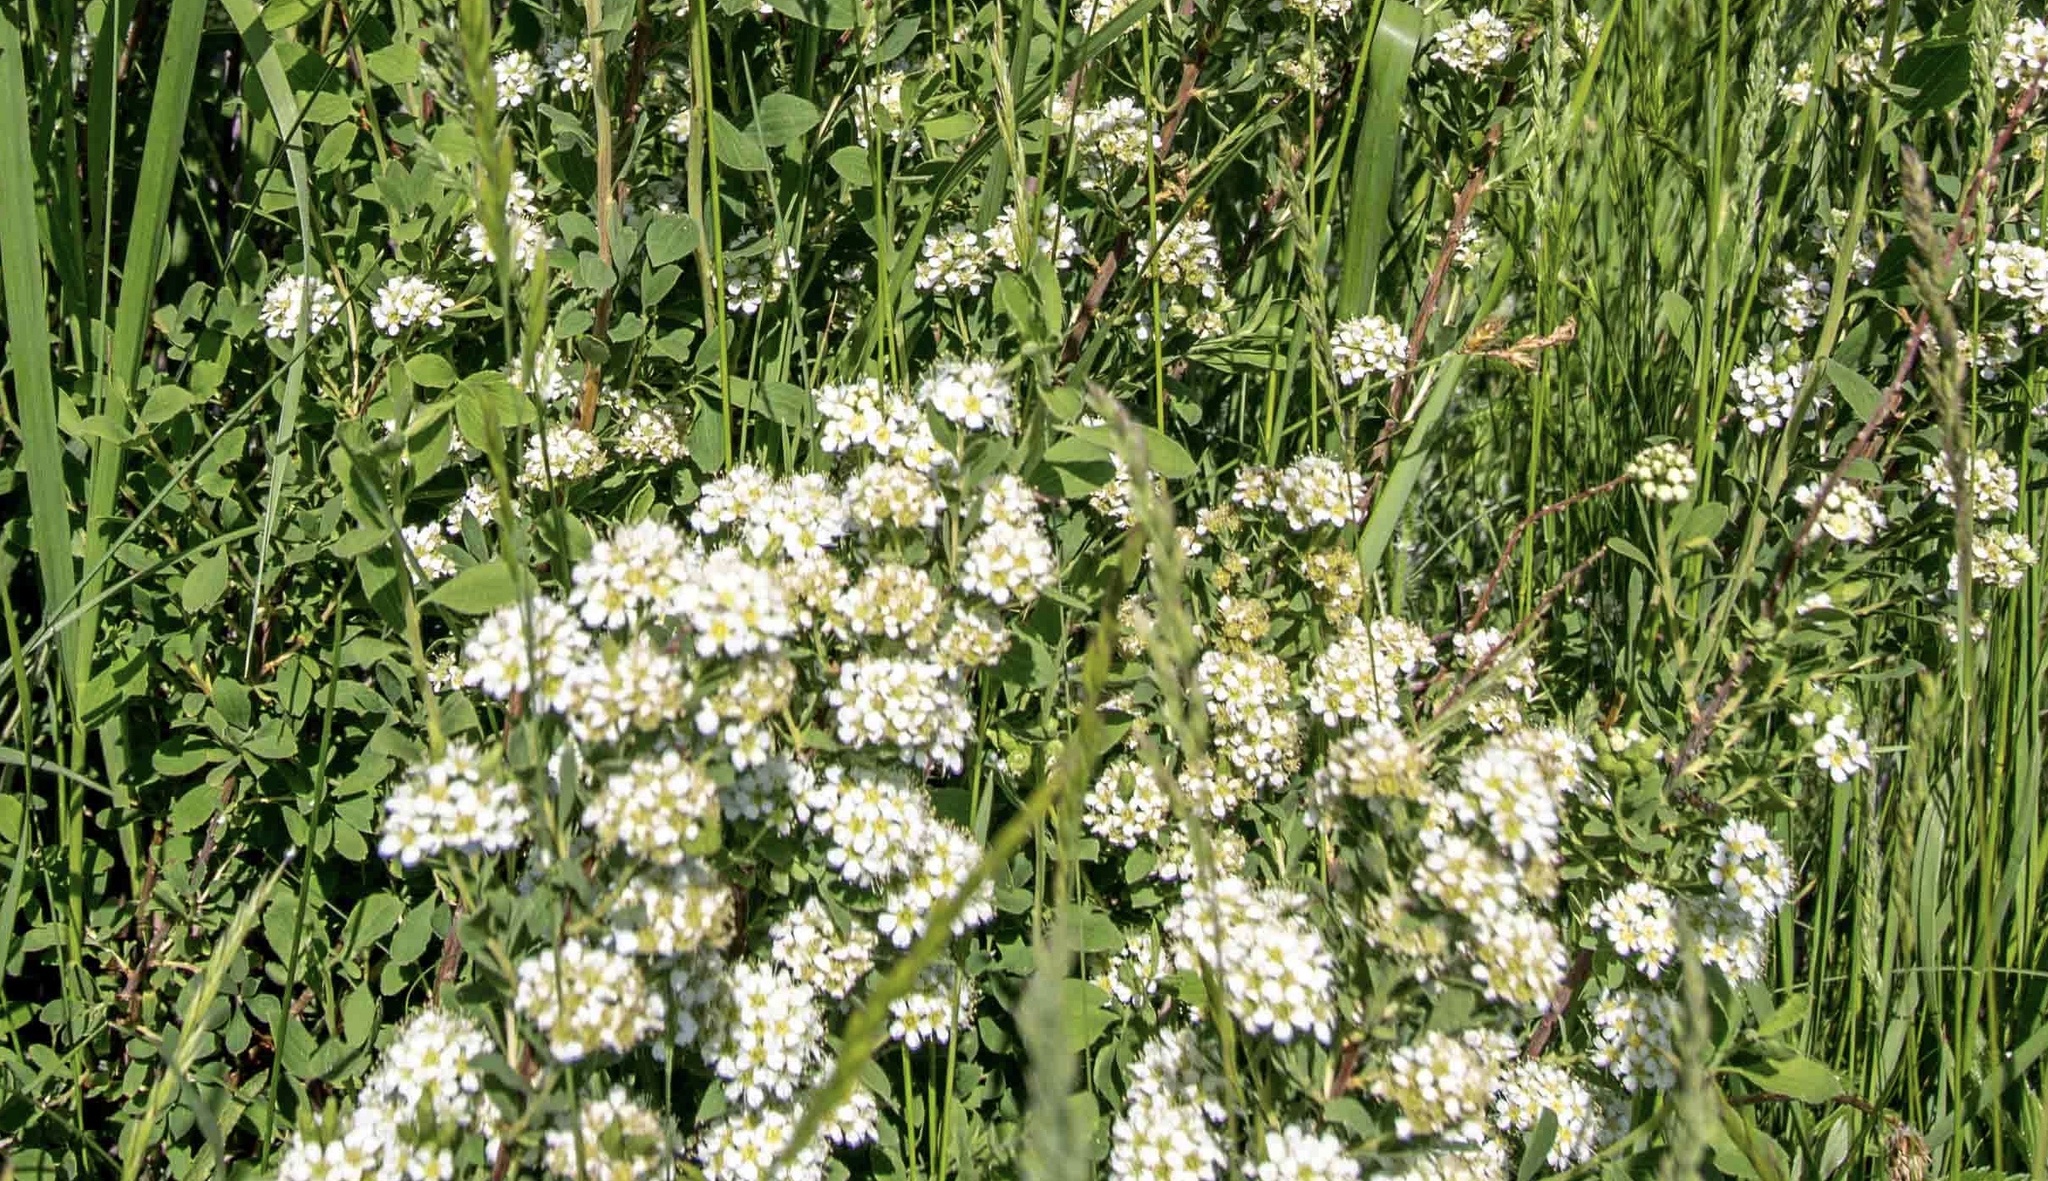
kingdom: Plantae
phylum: Tracheophyta
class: Magnoliopsida
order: Rosales
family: Rosaceae
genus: Spiraea
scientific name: Spiraea crenata
